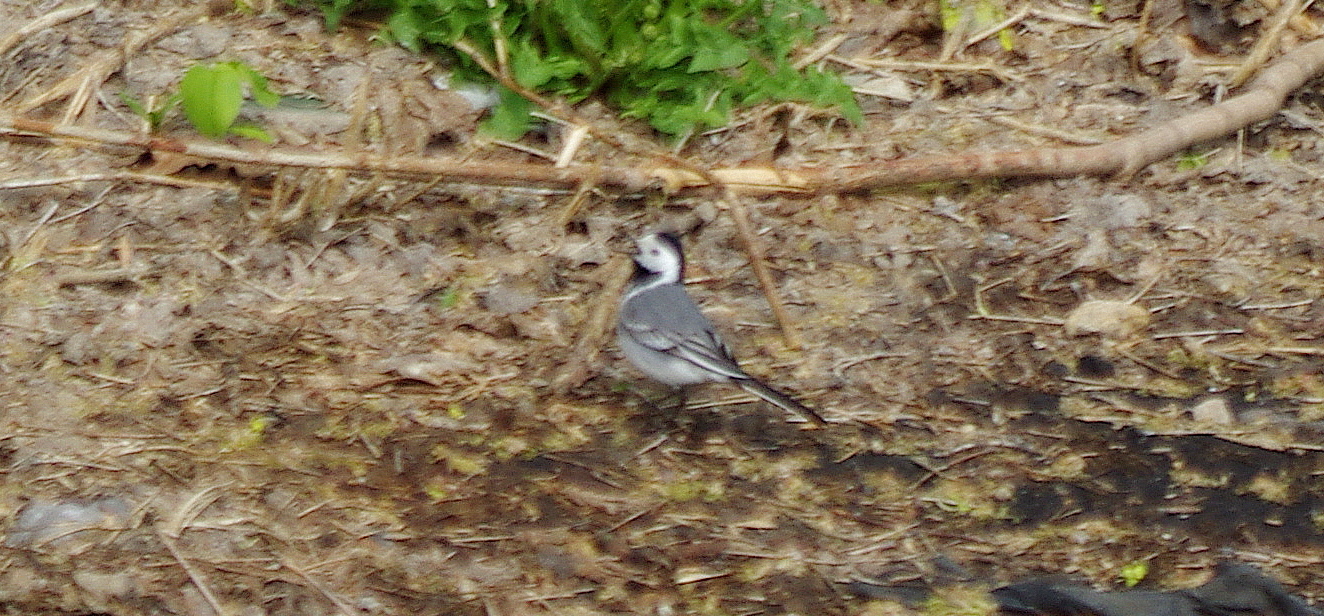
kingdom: Animalia
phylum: Chordata
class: Aves
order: Passeriformes
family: Motacillidae
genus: Motacilla
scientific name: Motacilla alba
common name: White wagtail
